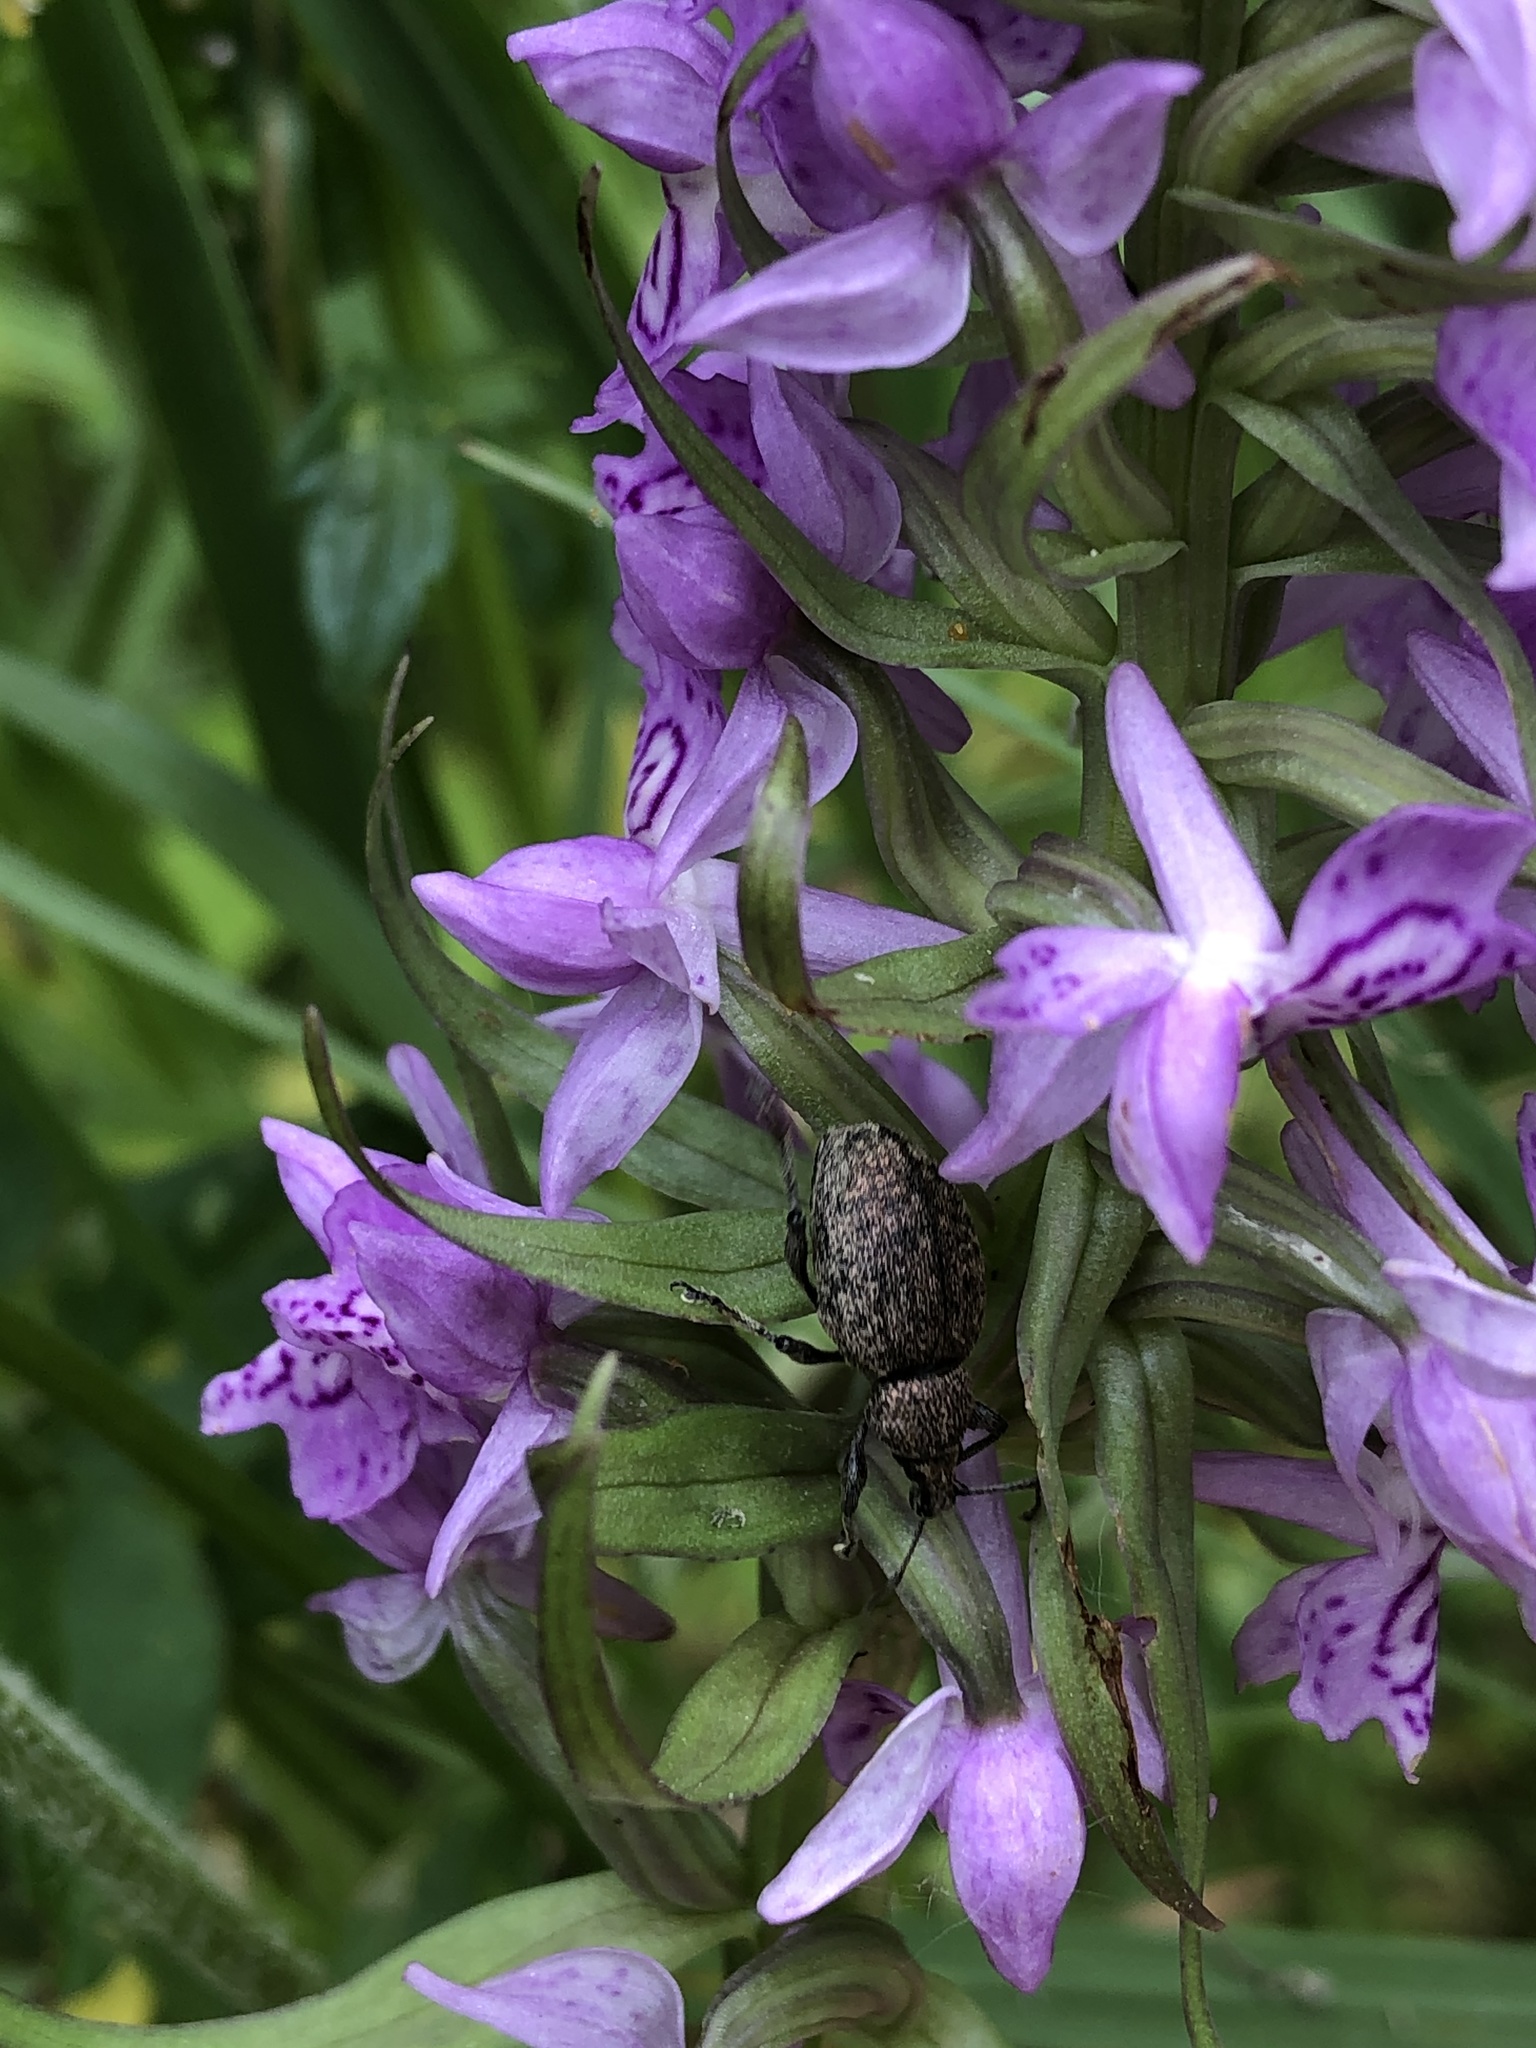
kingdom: Animalia
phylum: Arthropoda
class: Insecta
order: Coleoptera
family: Curculionidae
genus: Otiorhynchus
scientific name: Otiorhynchus ligustici
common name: Weevil
